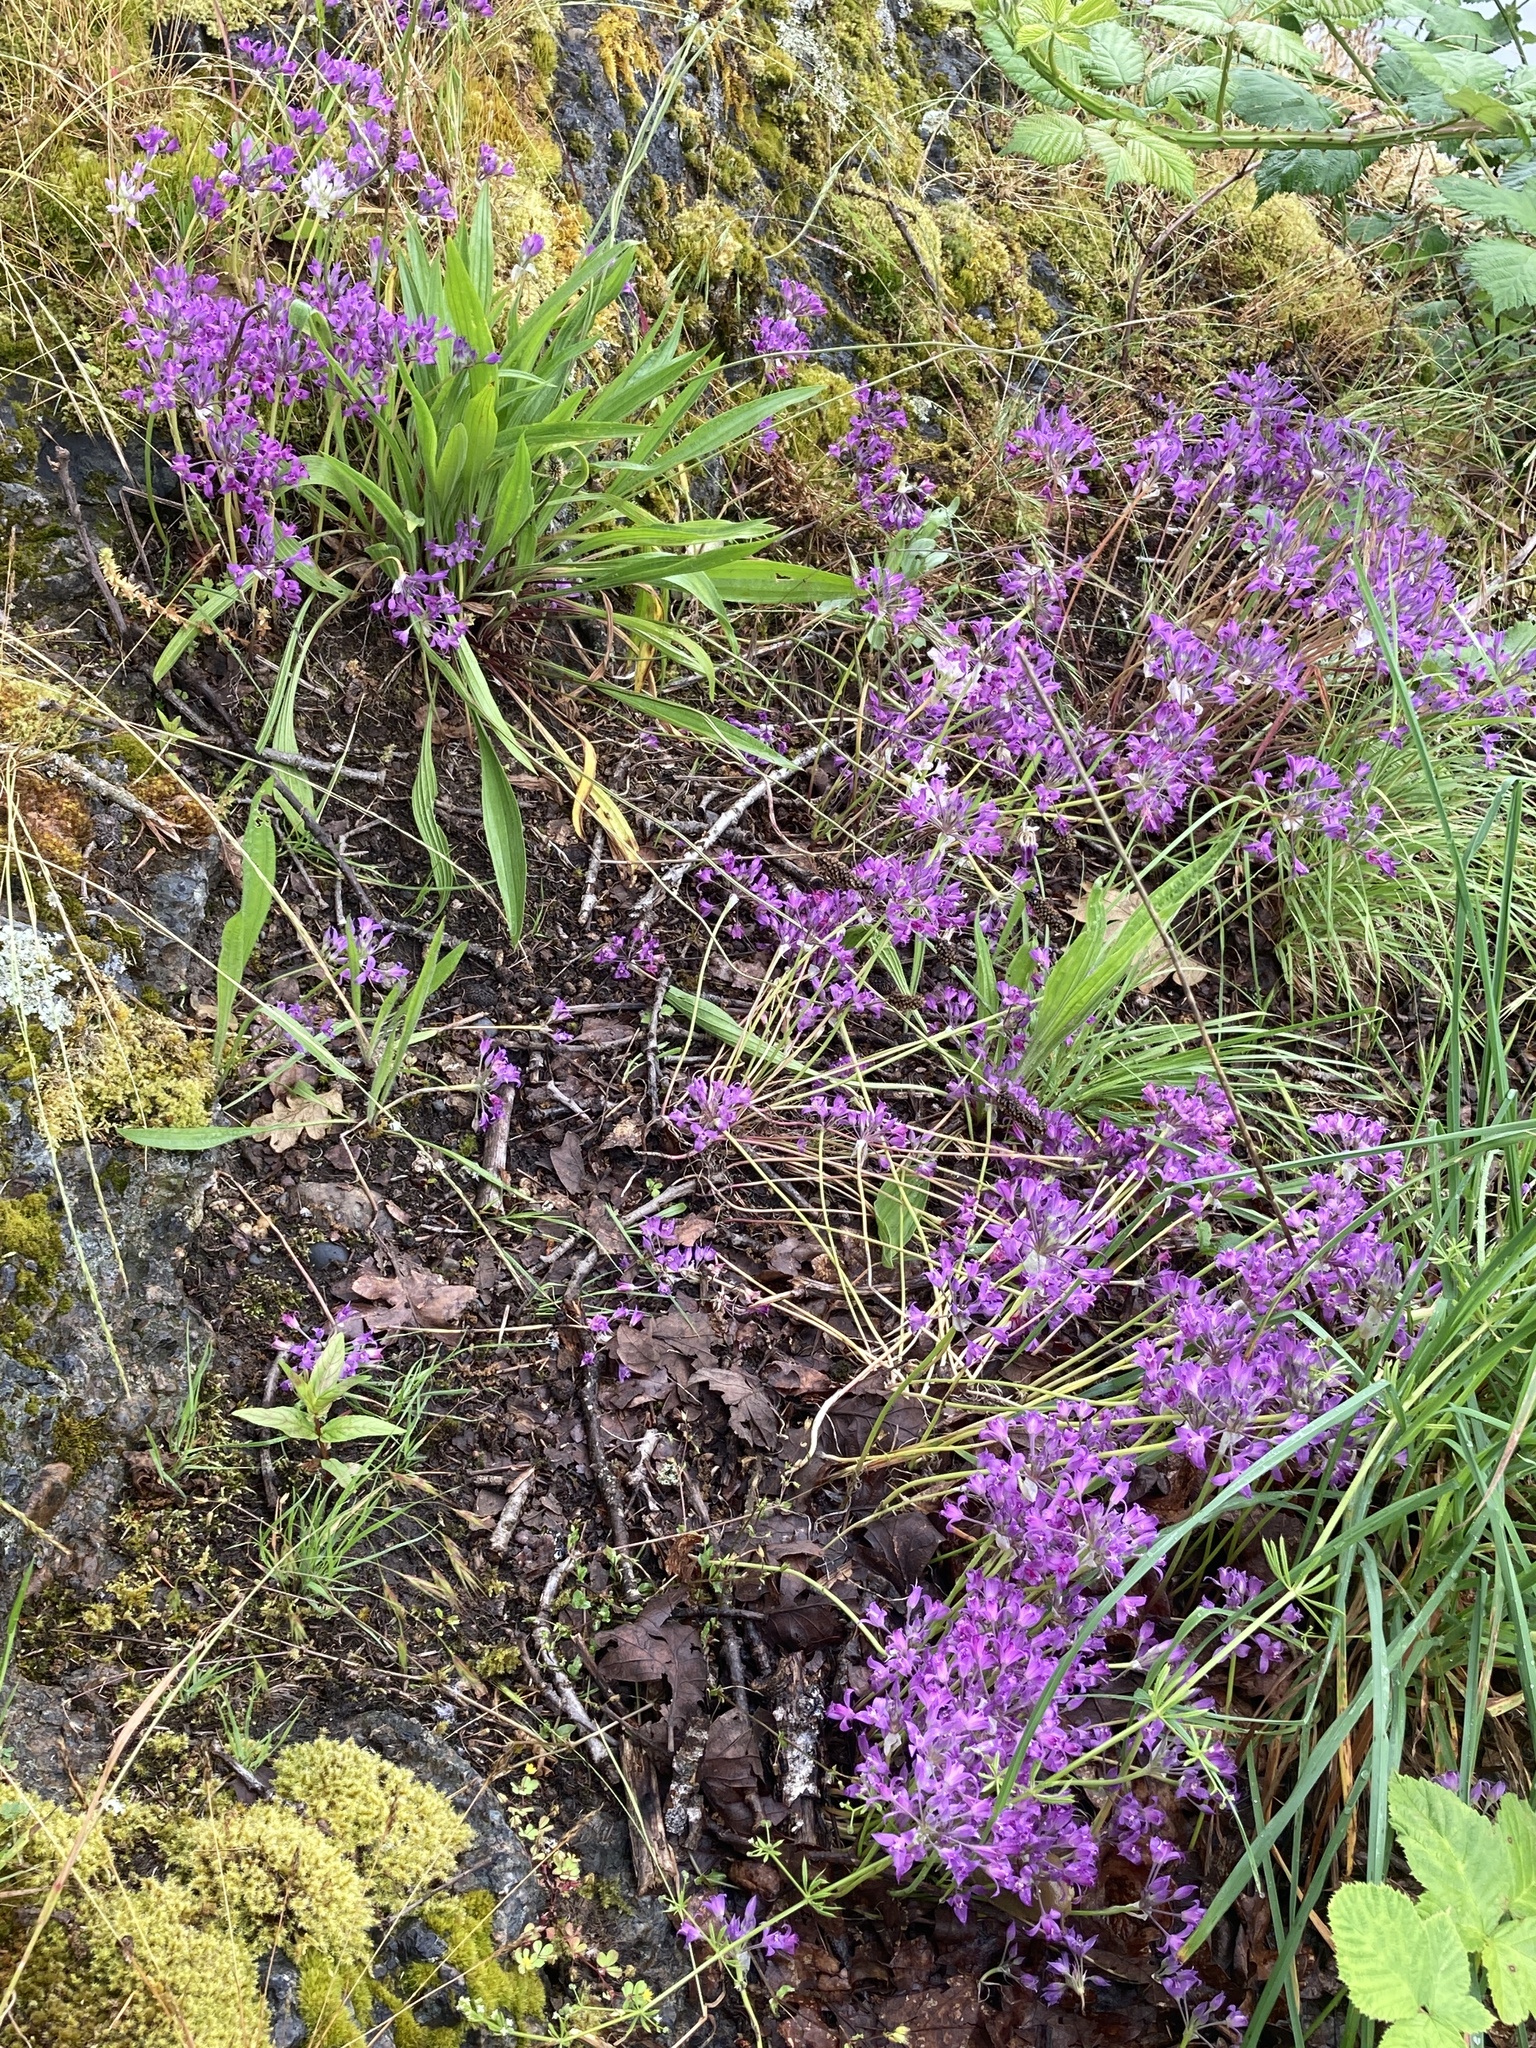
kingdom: Plantae
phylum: Tracheophyta
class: Liliopsida
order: Asparagales
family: Amaryllidaceae
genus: Allium
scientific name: Allium acuminatum
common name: Hooker's onion
